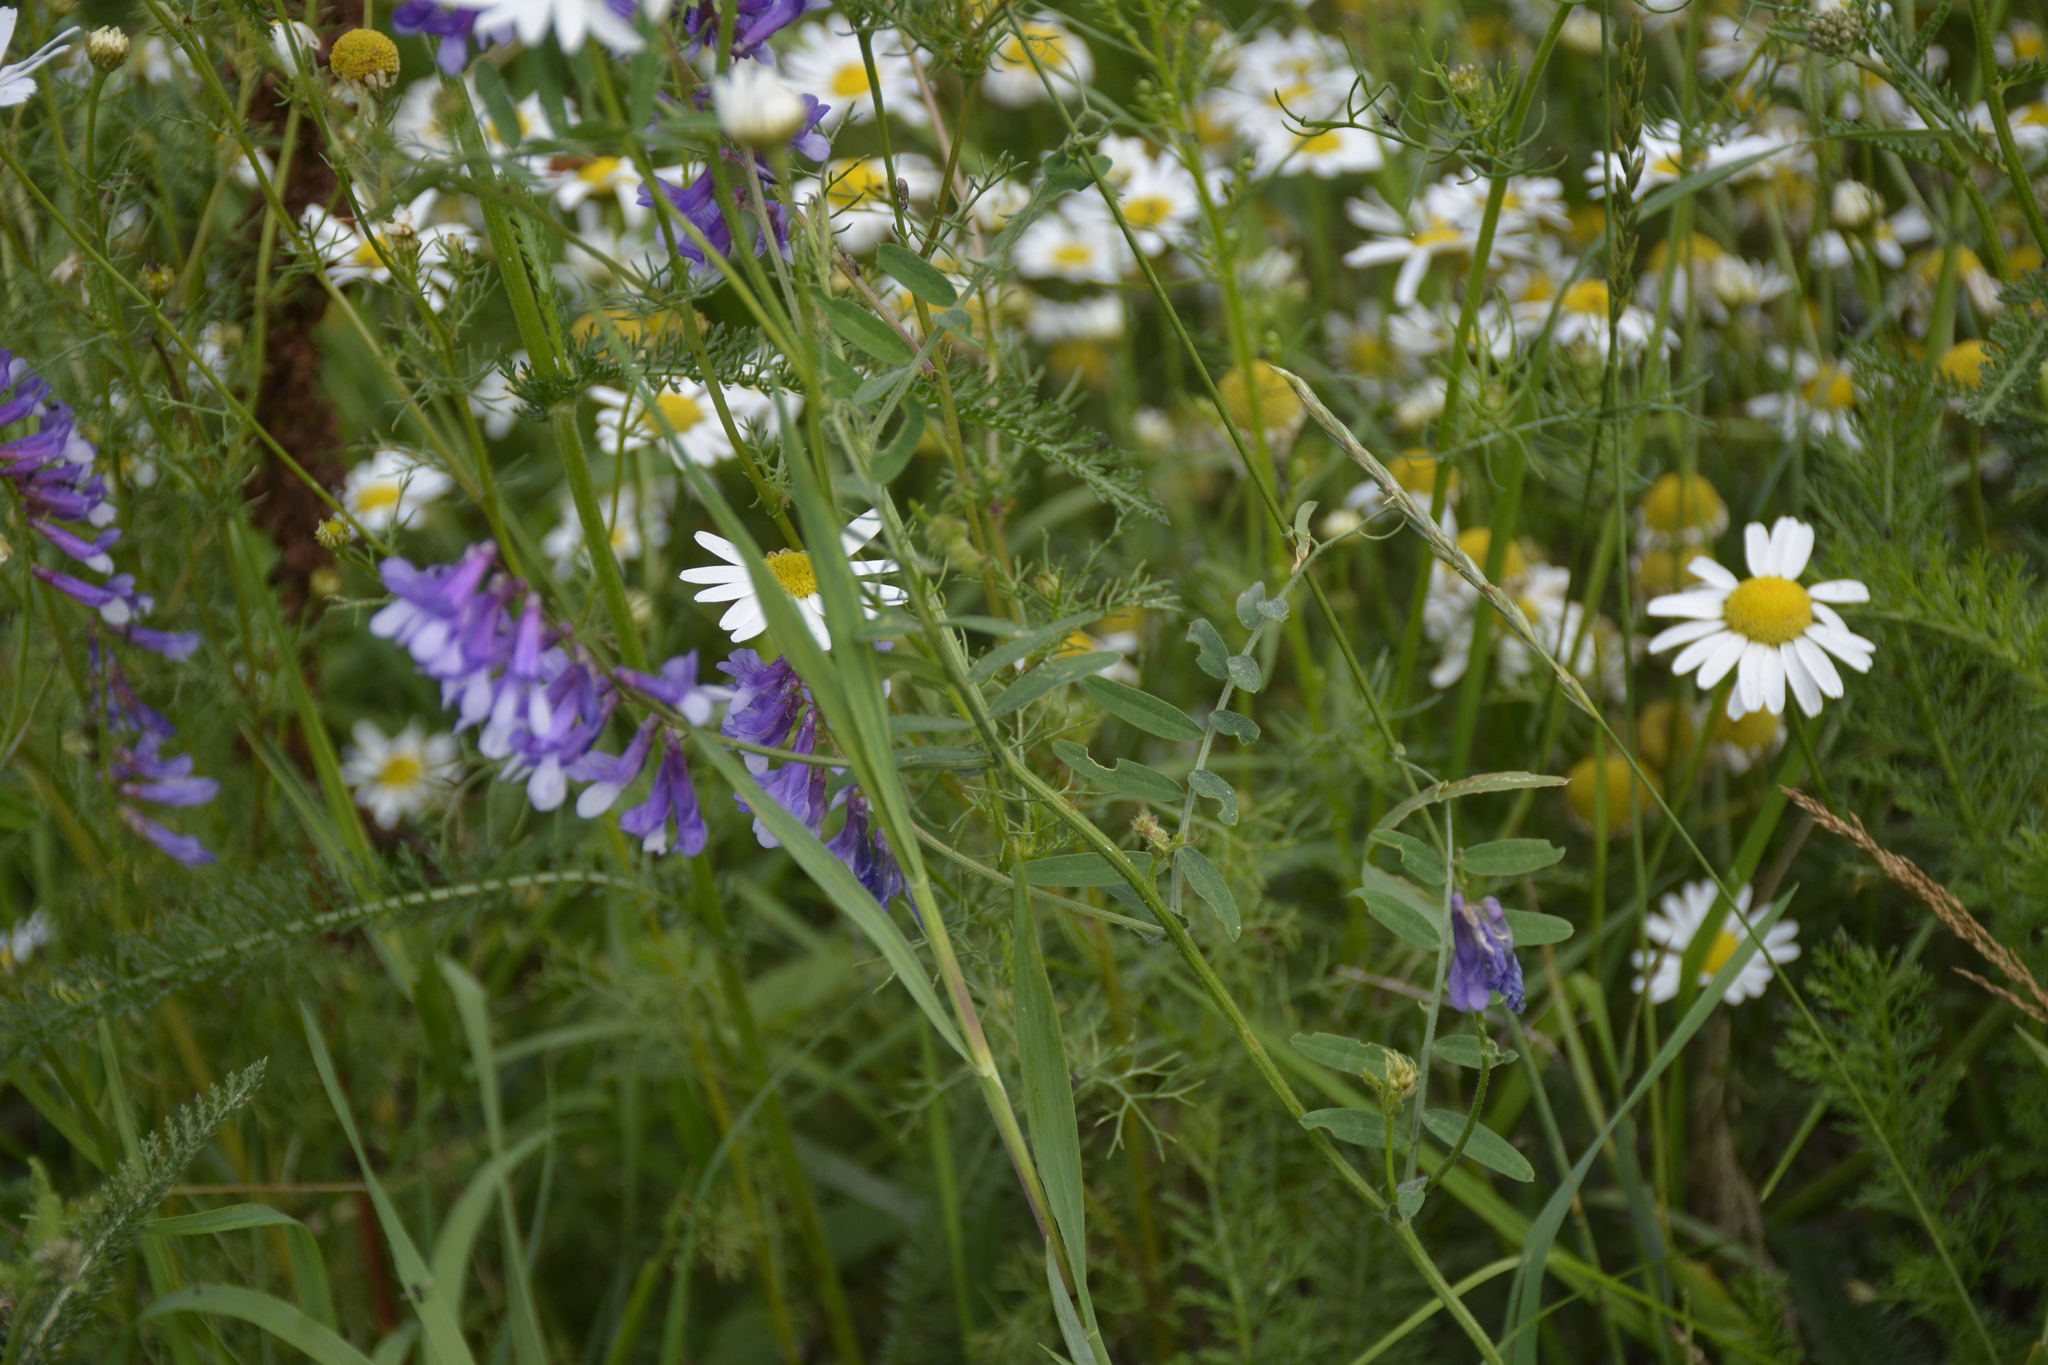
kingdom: Plantae
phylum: Tracheophyta
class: Magnoliopsida
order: Fabales
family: Fabaceae
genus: Vicia
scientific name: Vicia villosa
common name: Fodder vetch
